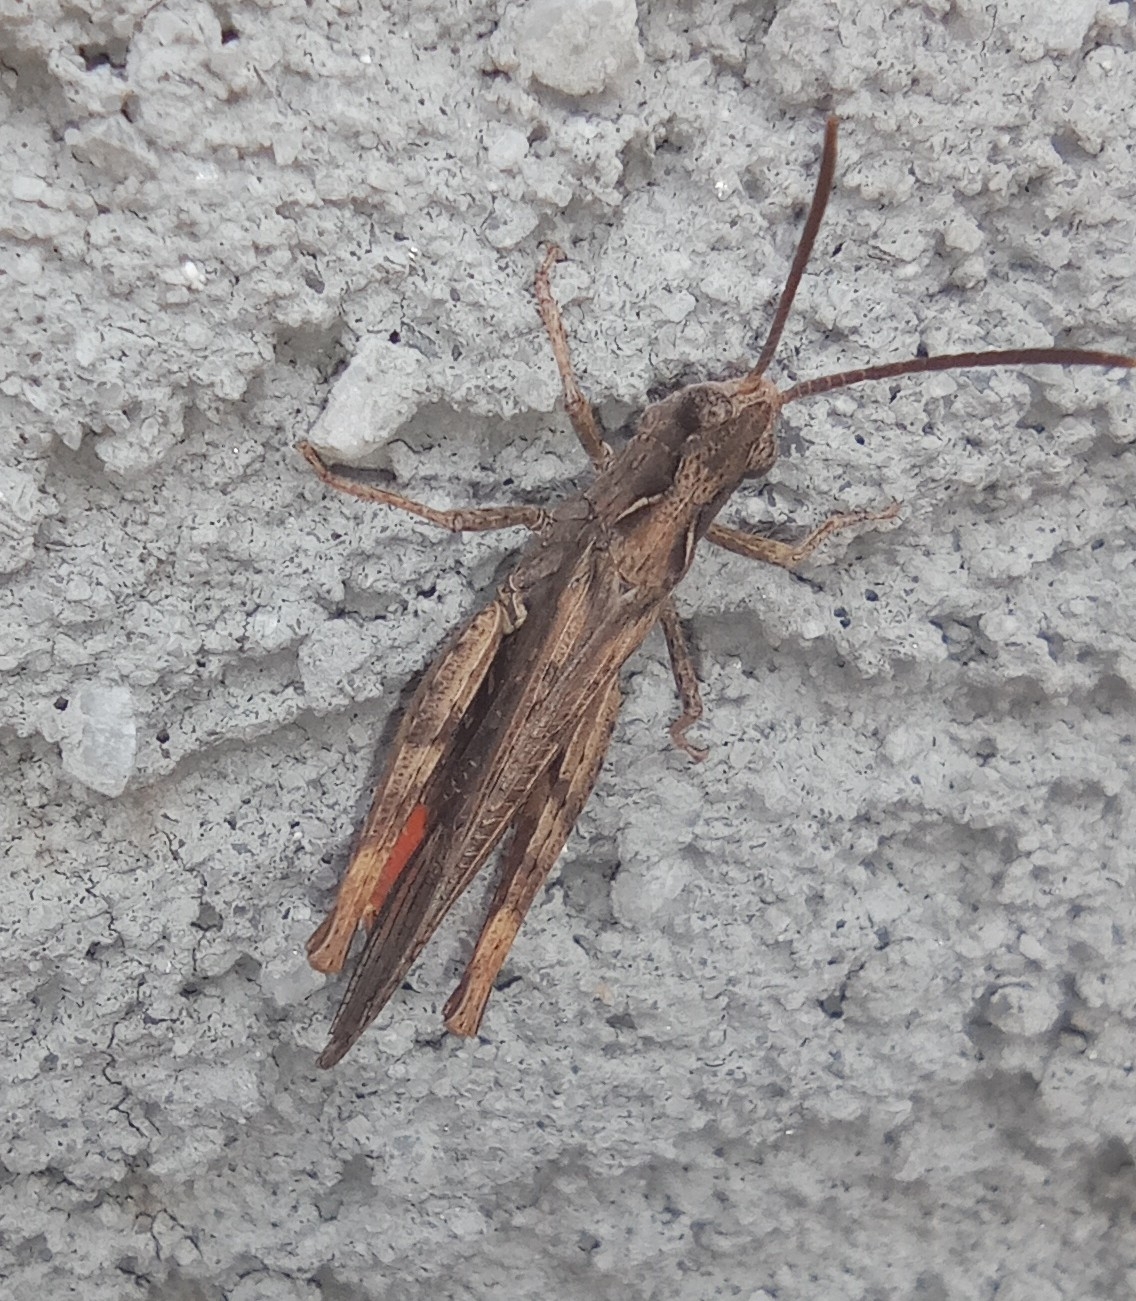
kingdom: Animalia
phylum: Arthropoda
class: Insecta
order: Orthoptera
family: Acrididae
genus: Chorthippus
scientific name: Chorthippus brunneus
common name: Field grasshopper
